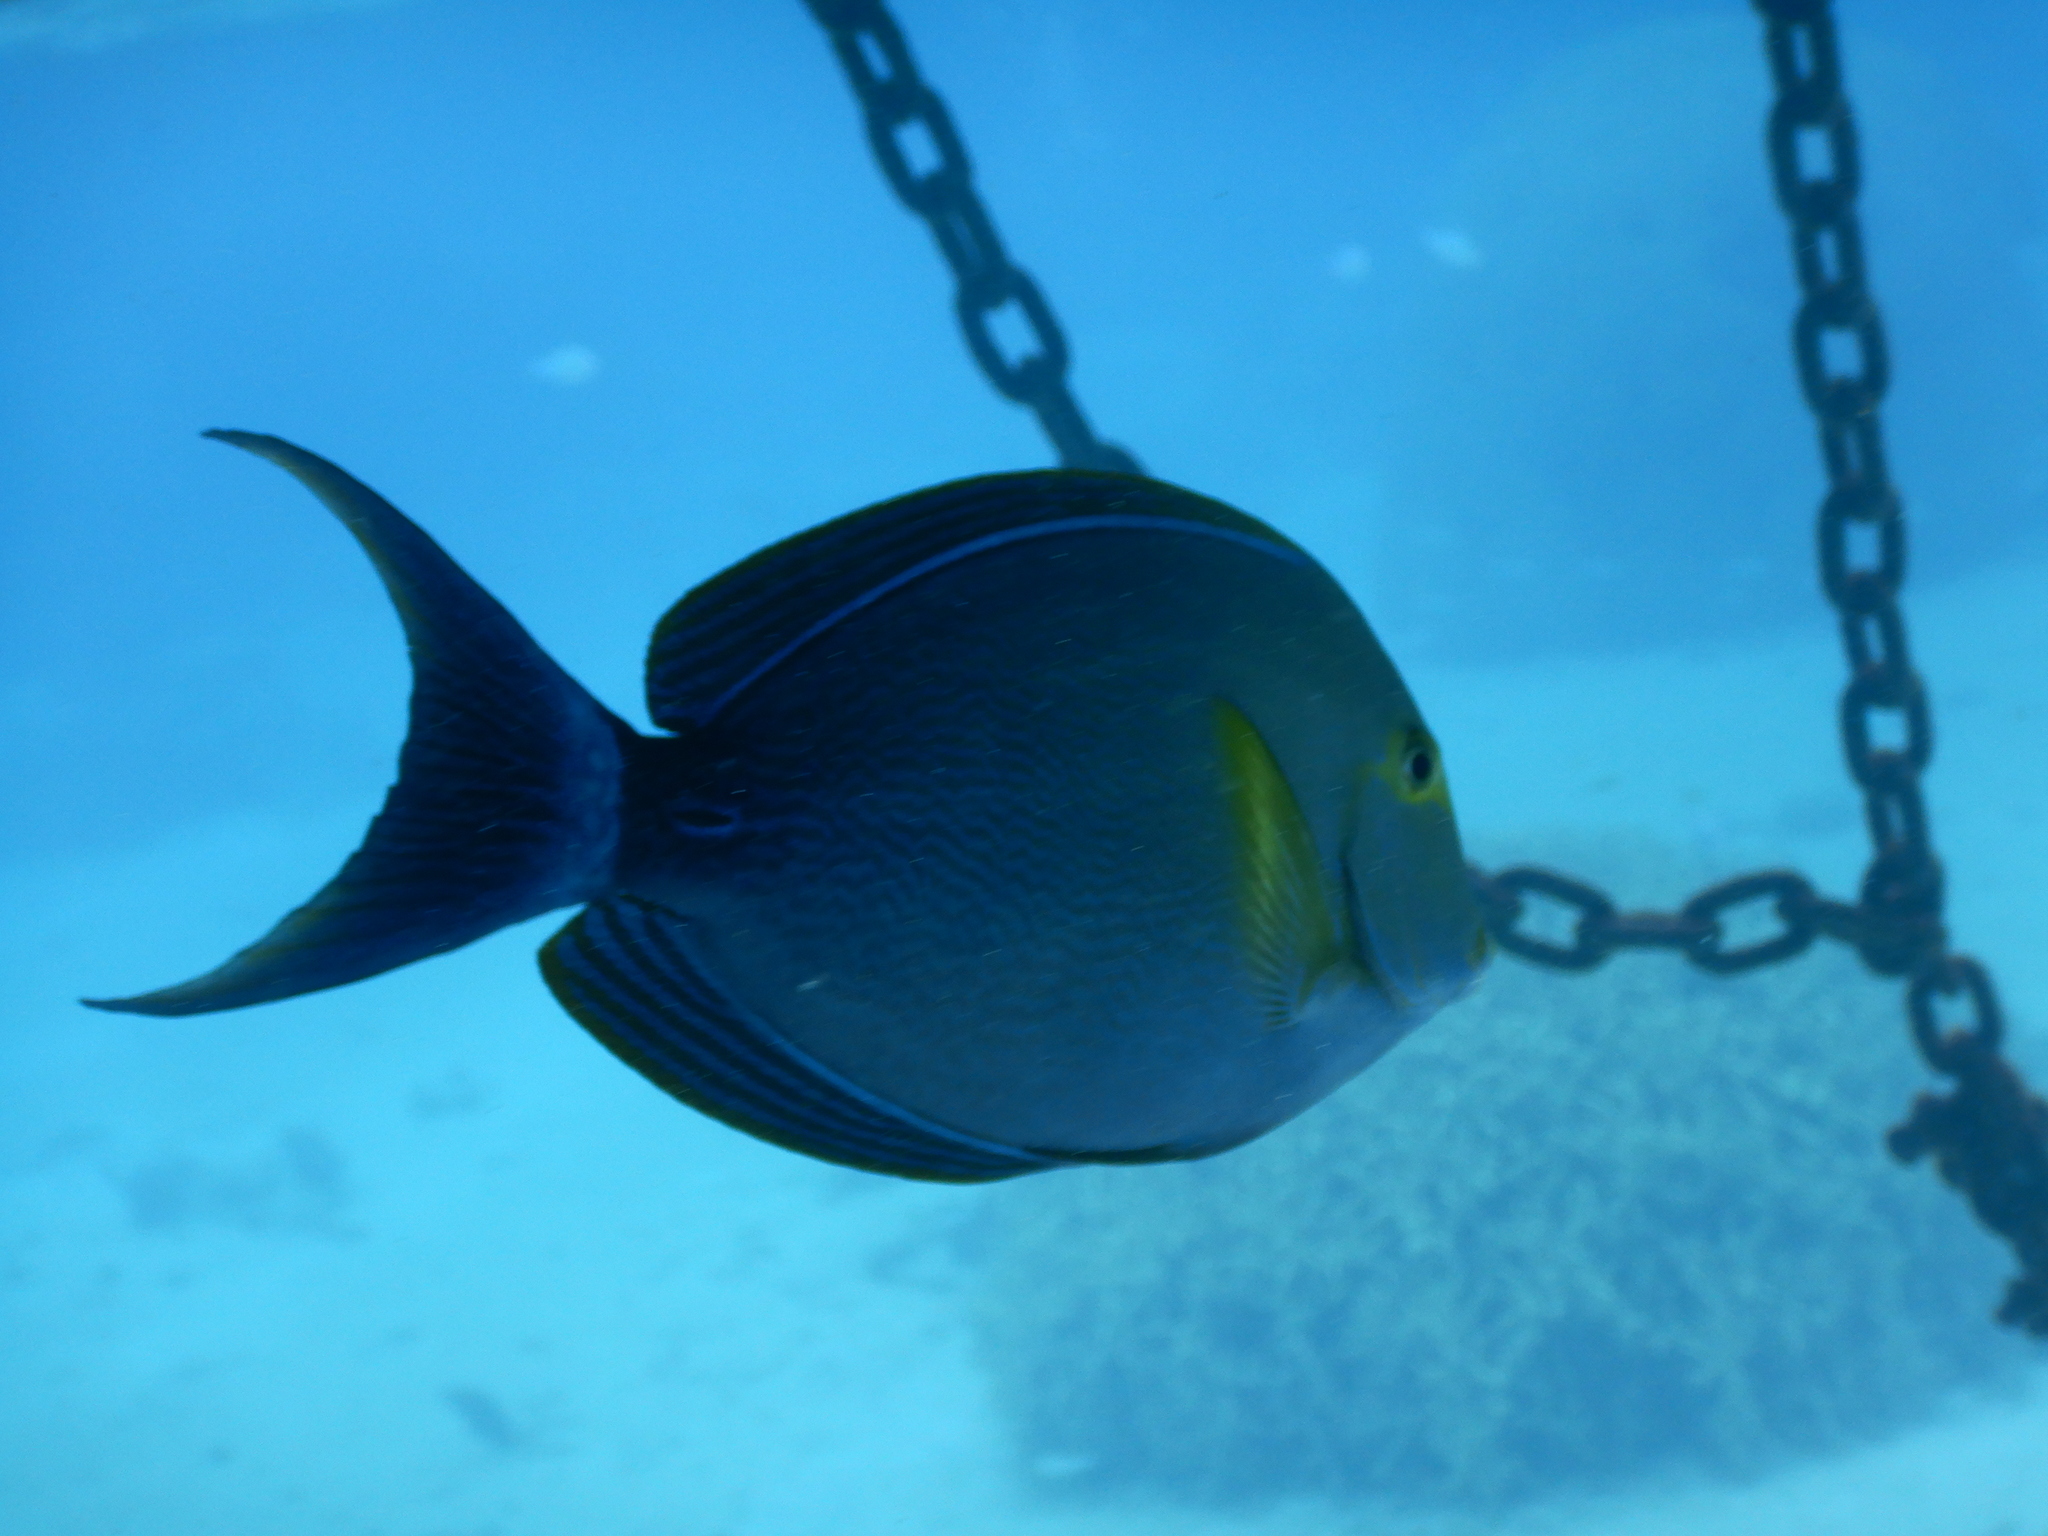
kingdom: Animalia
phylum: Chordata
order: Perciformes
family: Acanthuridae
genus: Acanthurus
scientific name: Acanthurus xanthopterus
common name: Cuvier's surgeonfish
